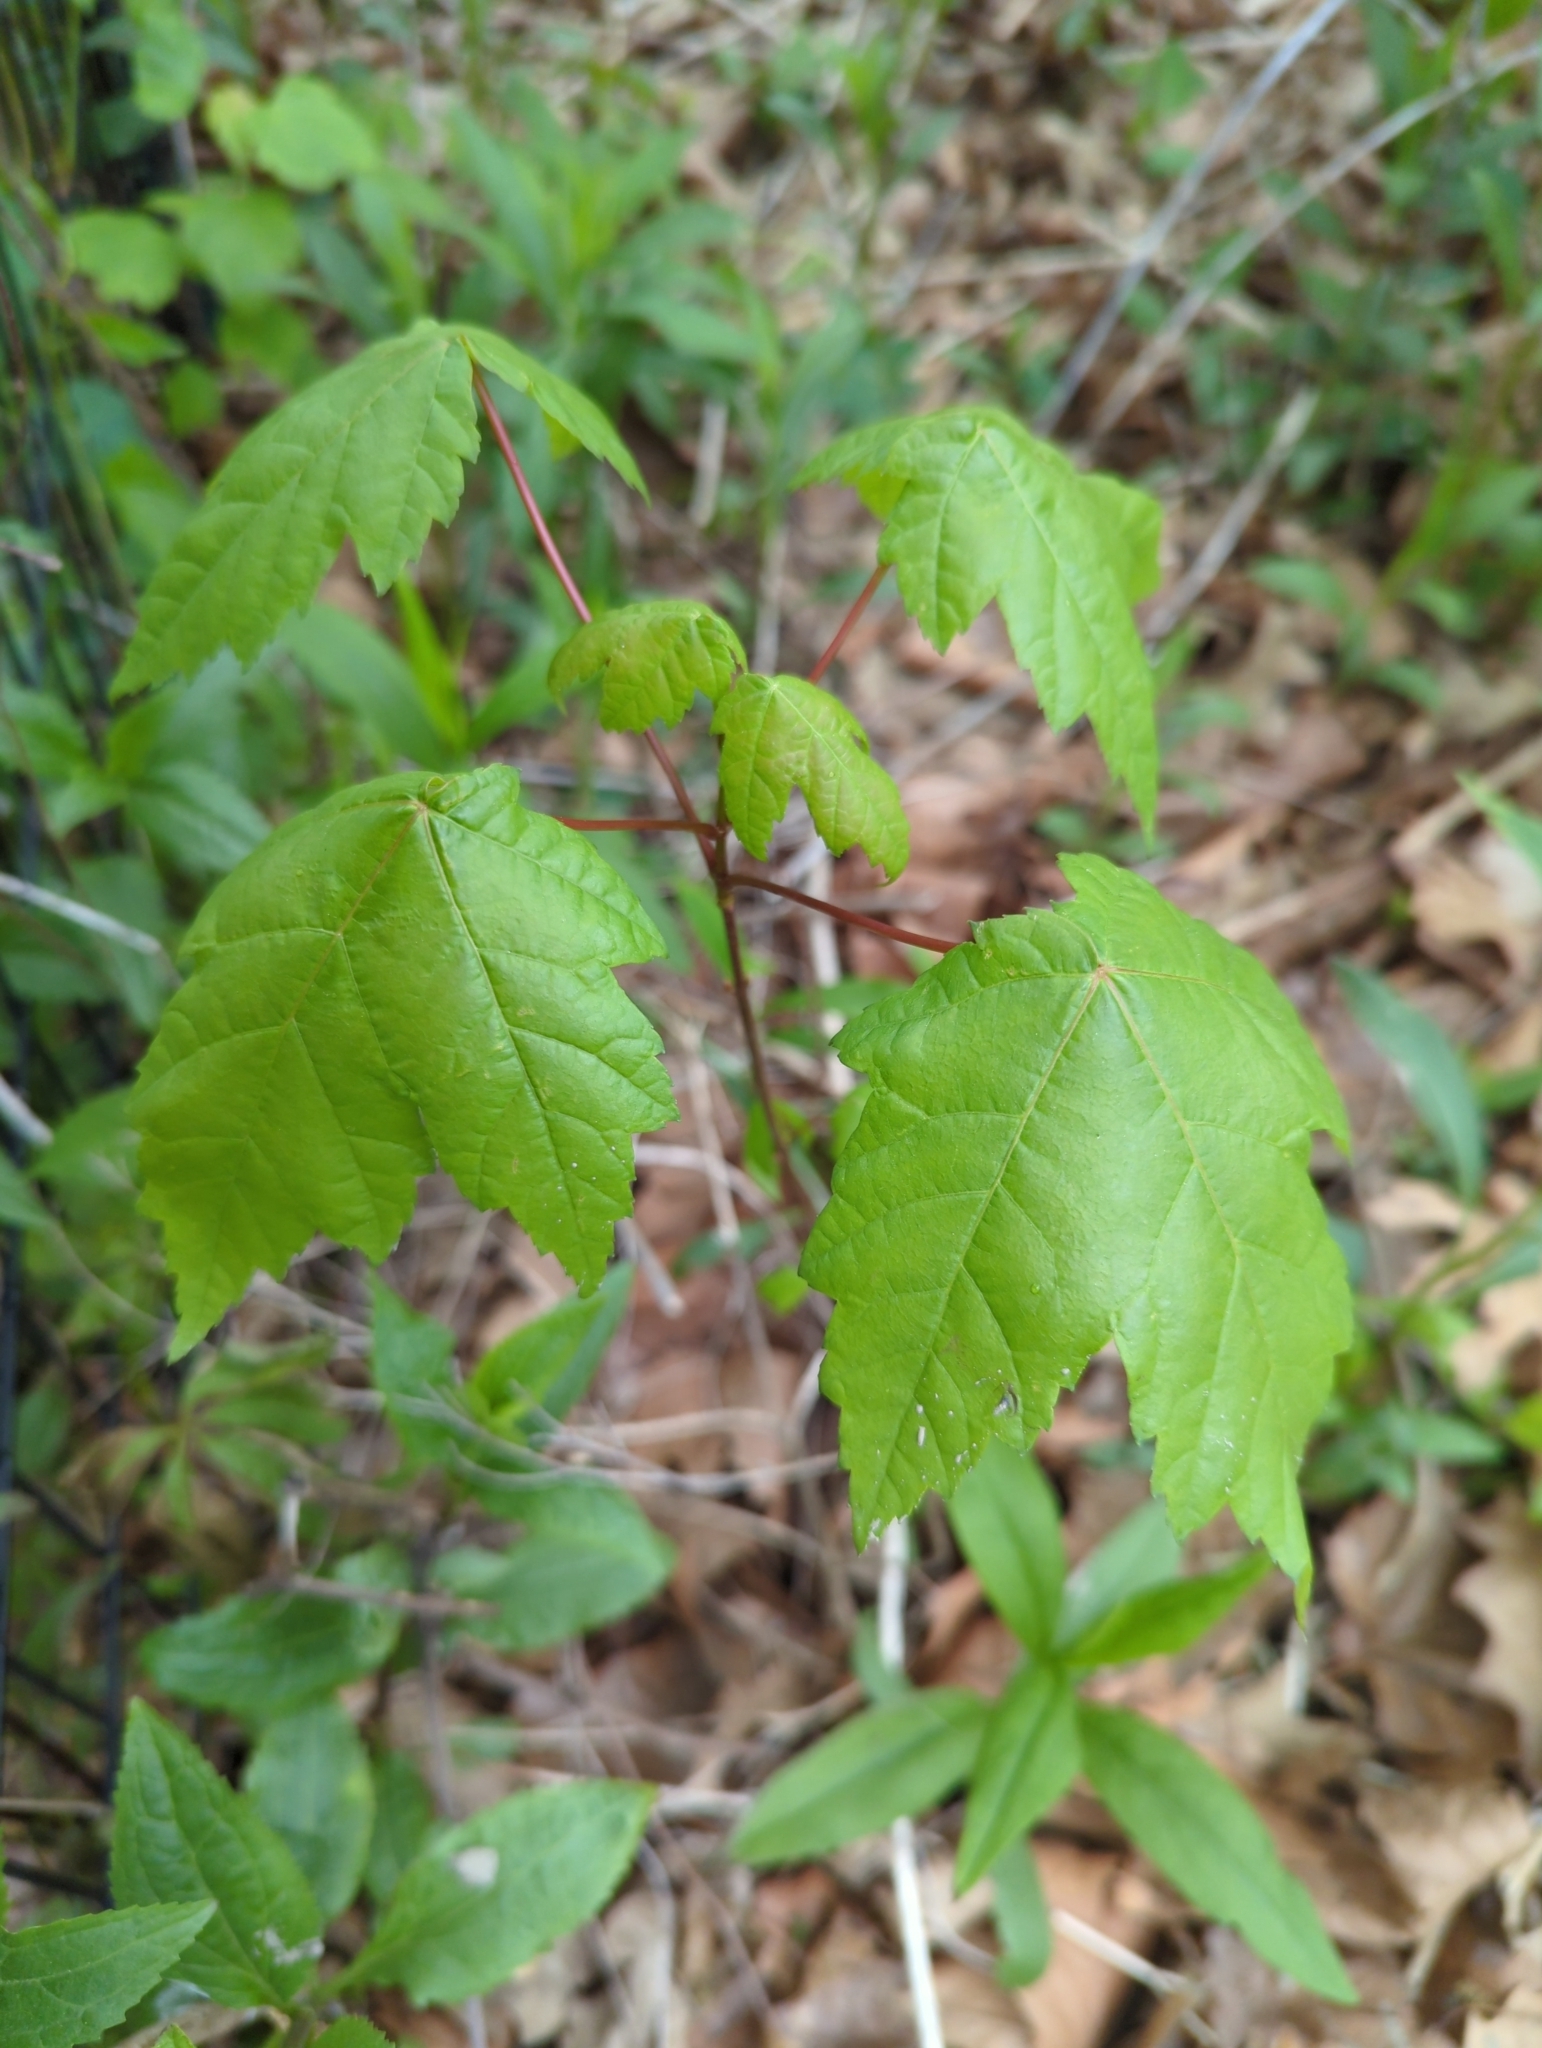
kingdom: Plantae
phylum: Tracheophyta
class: Magnoliopsida
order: Sapindales
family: Sapindaceae
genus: Acer
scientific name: Acer rubrum
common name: Red maple
